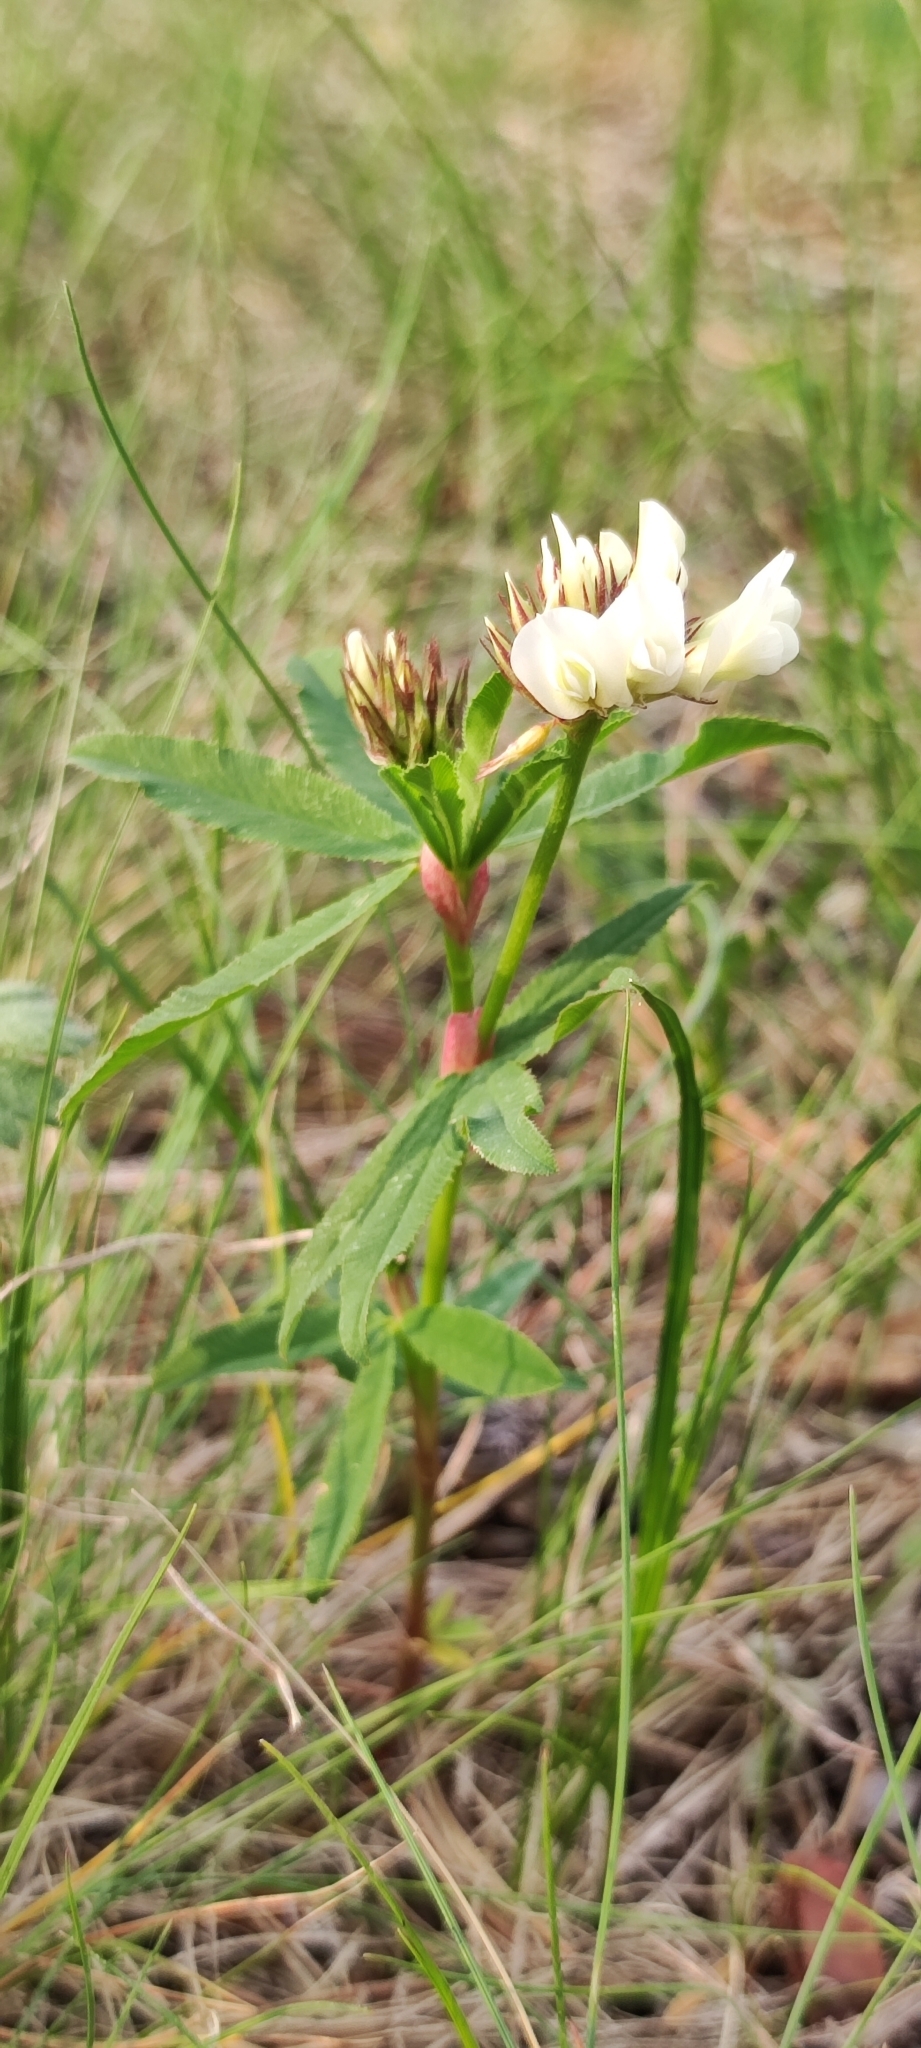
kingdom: Plantae
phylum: Tracheophyta
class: Magnoliopsida
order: Fabales
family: Fabaceae
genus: Trifolium
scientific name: Trifolium lupinaster
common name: Lupine clover
